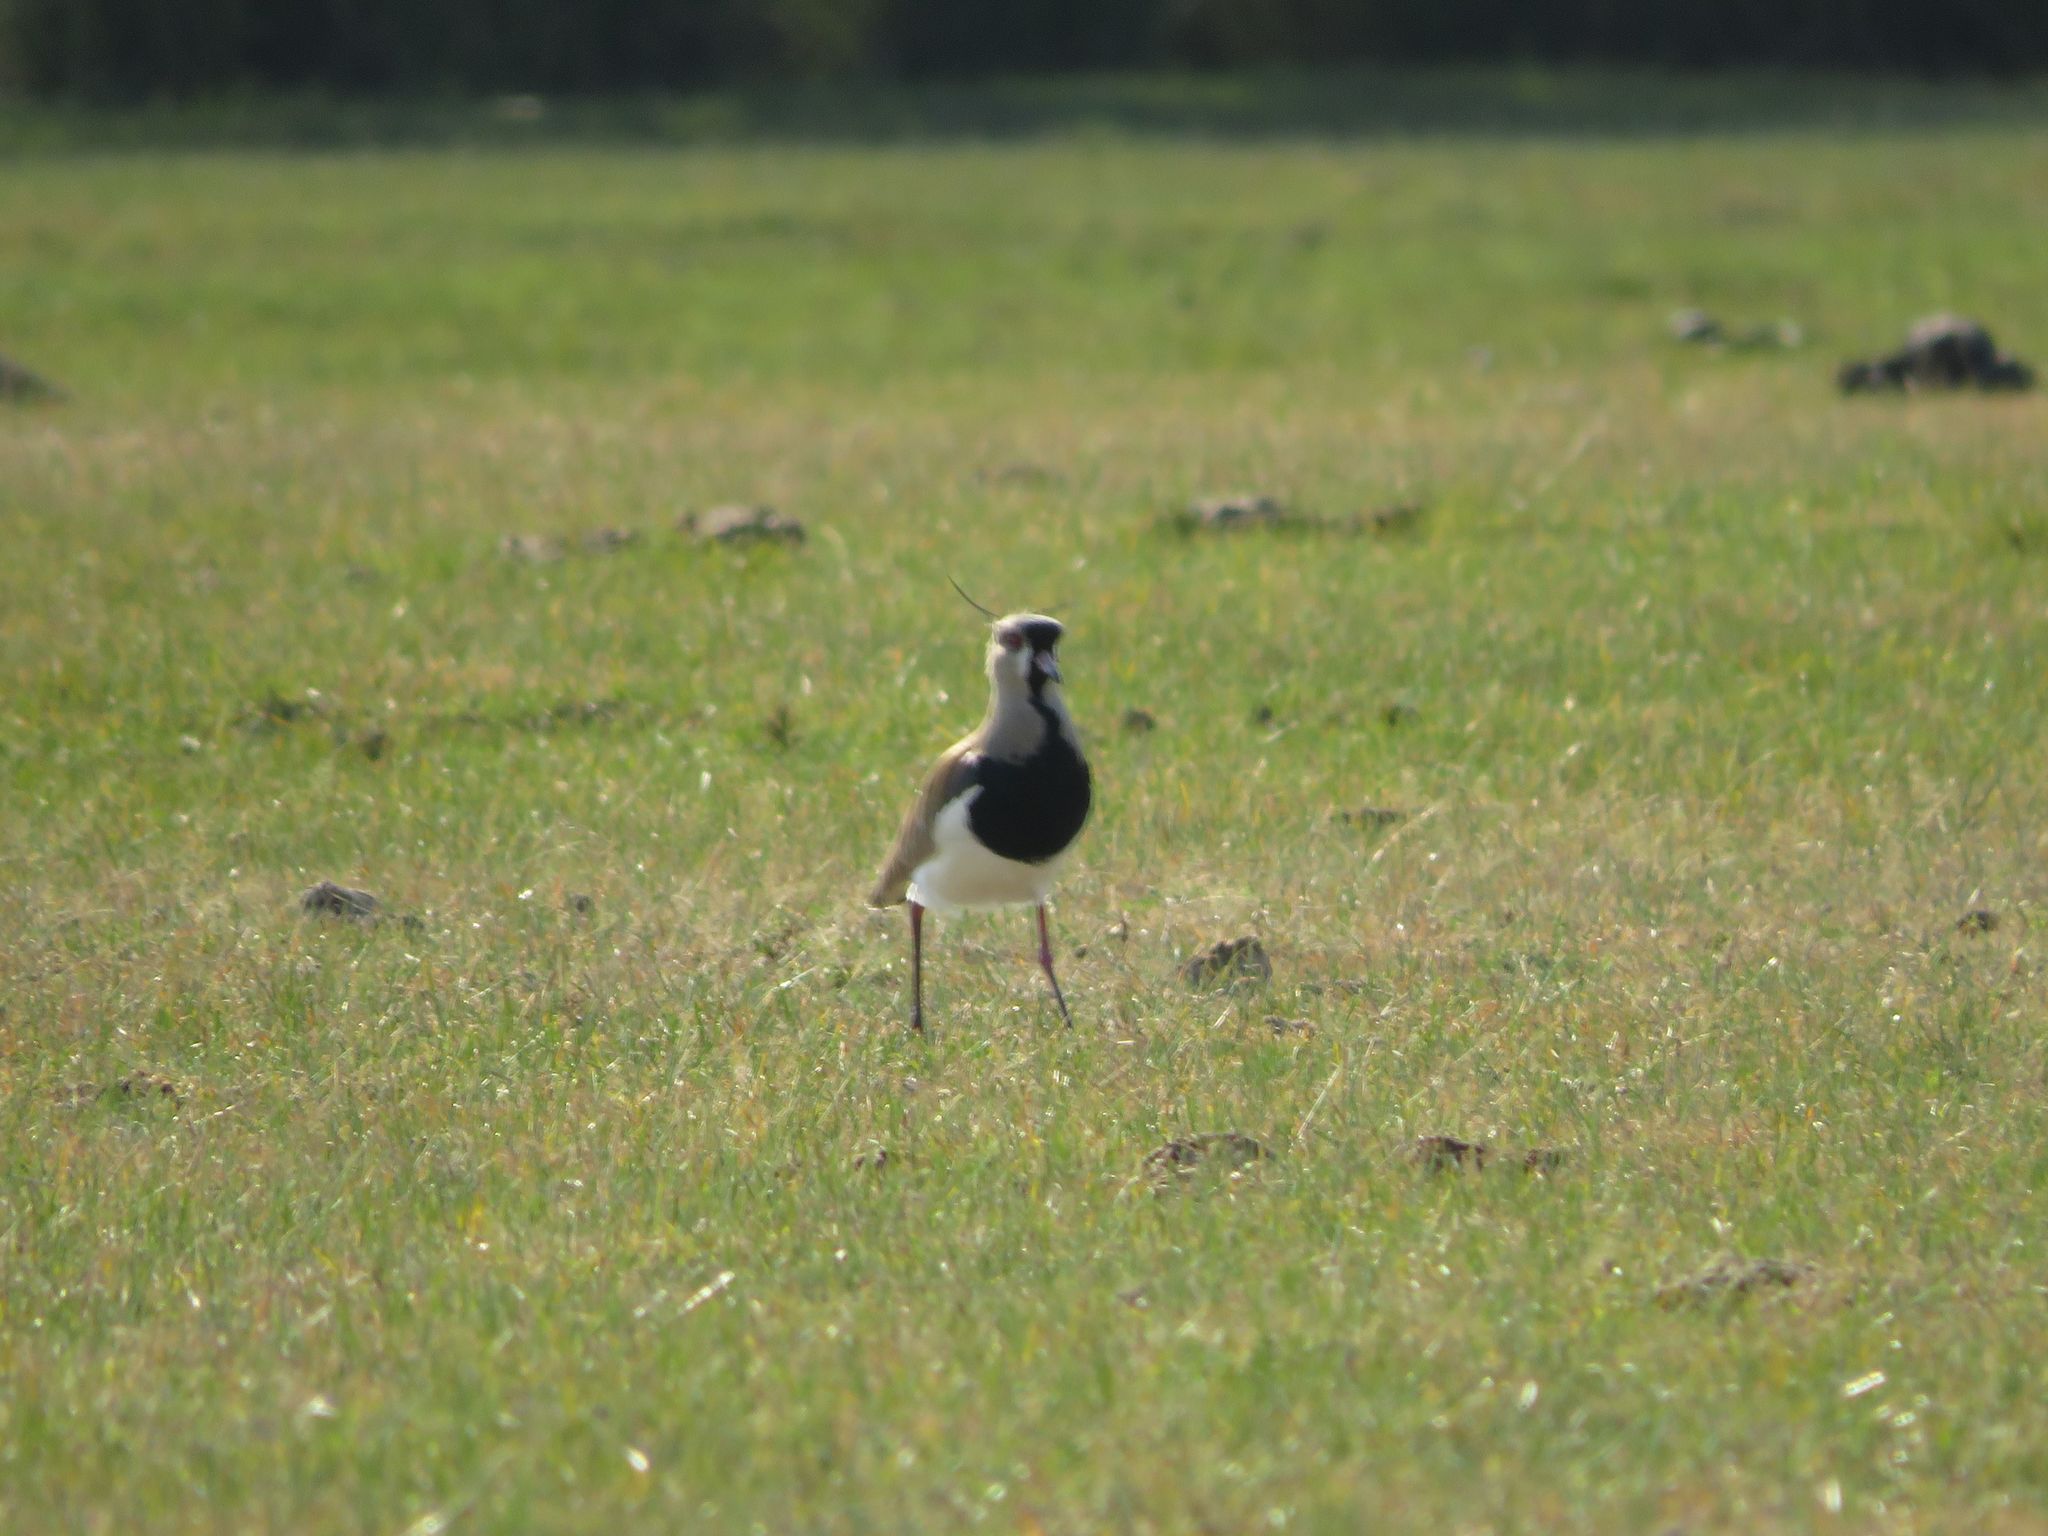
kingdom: Animalia
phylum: Chordata
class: Aves
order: Charadriiformes
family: Charadriidae
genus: Vanellus
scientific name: Vanellus chilensis
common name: Southern lapwing
